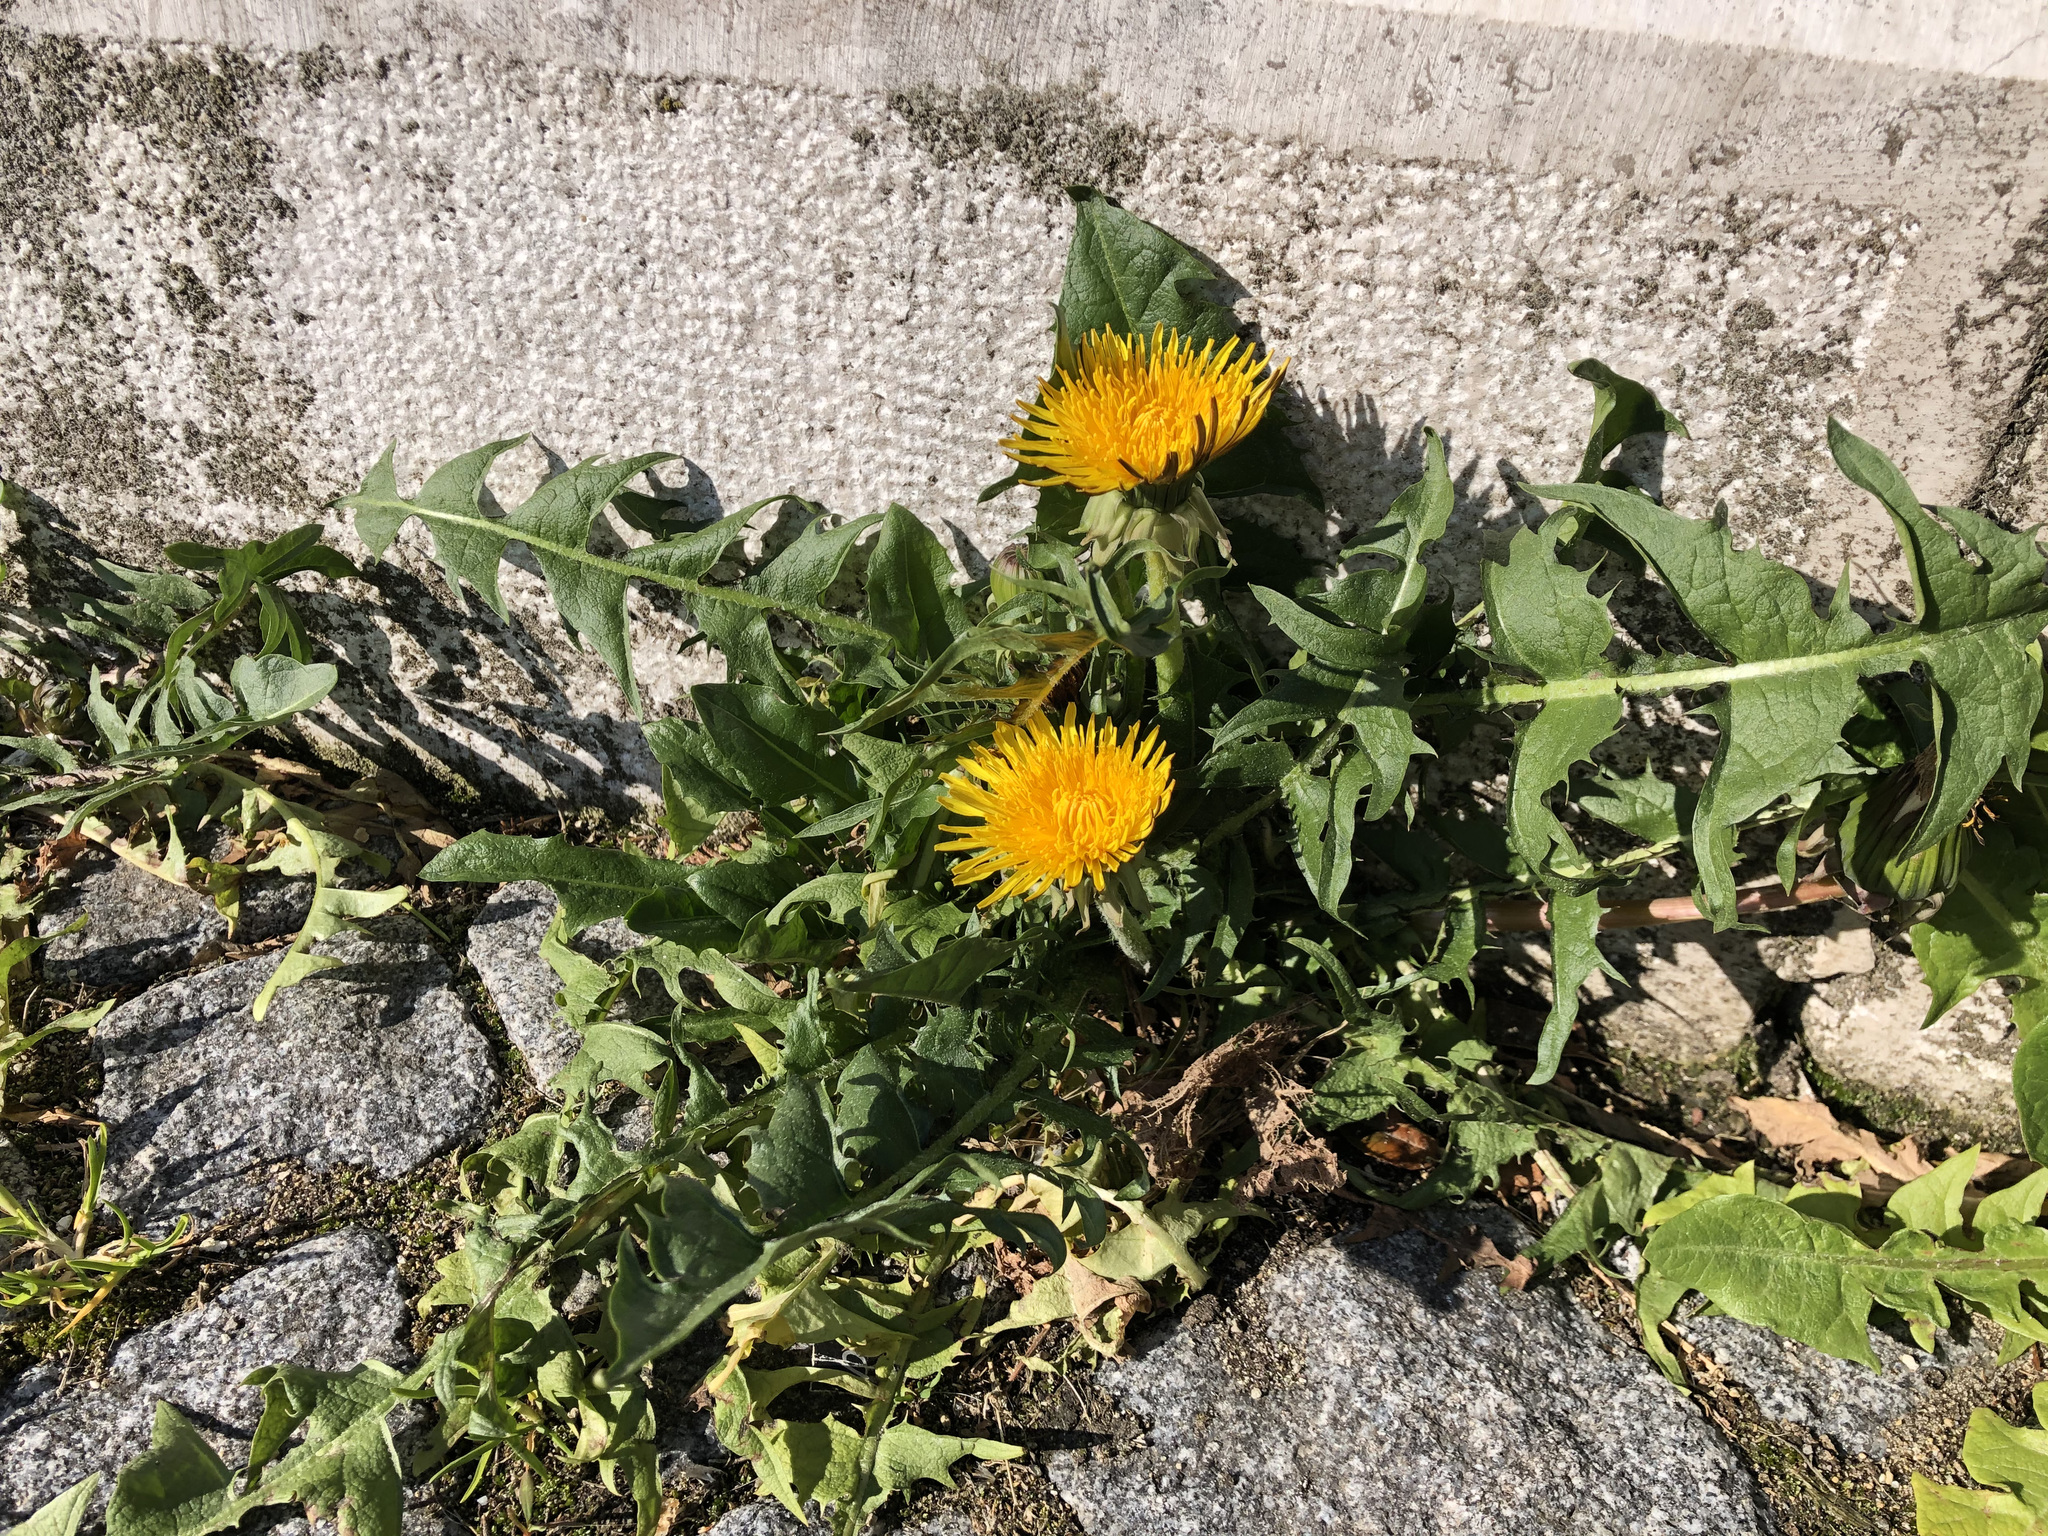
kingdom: Plantae
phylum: Tracheophyta
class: Magnoliopsida
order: Asterales
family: Asteraceae
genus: Taraxacum
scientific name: Taraxacum officinale
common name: Common dandelion
